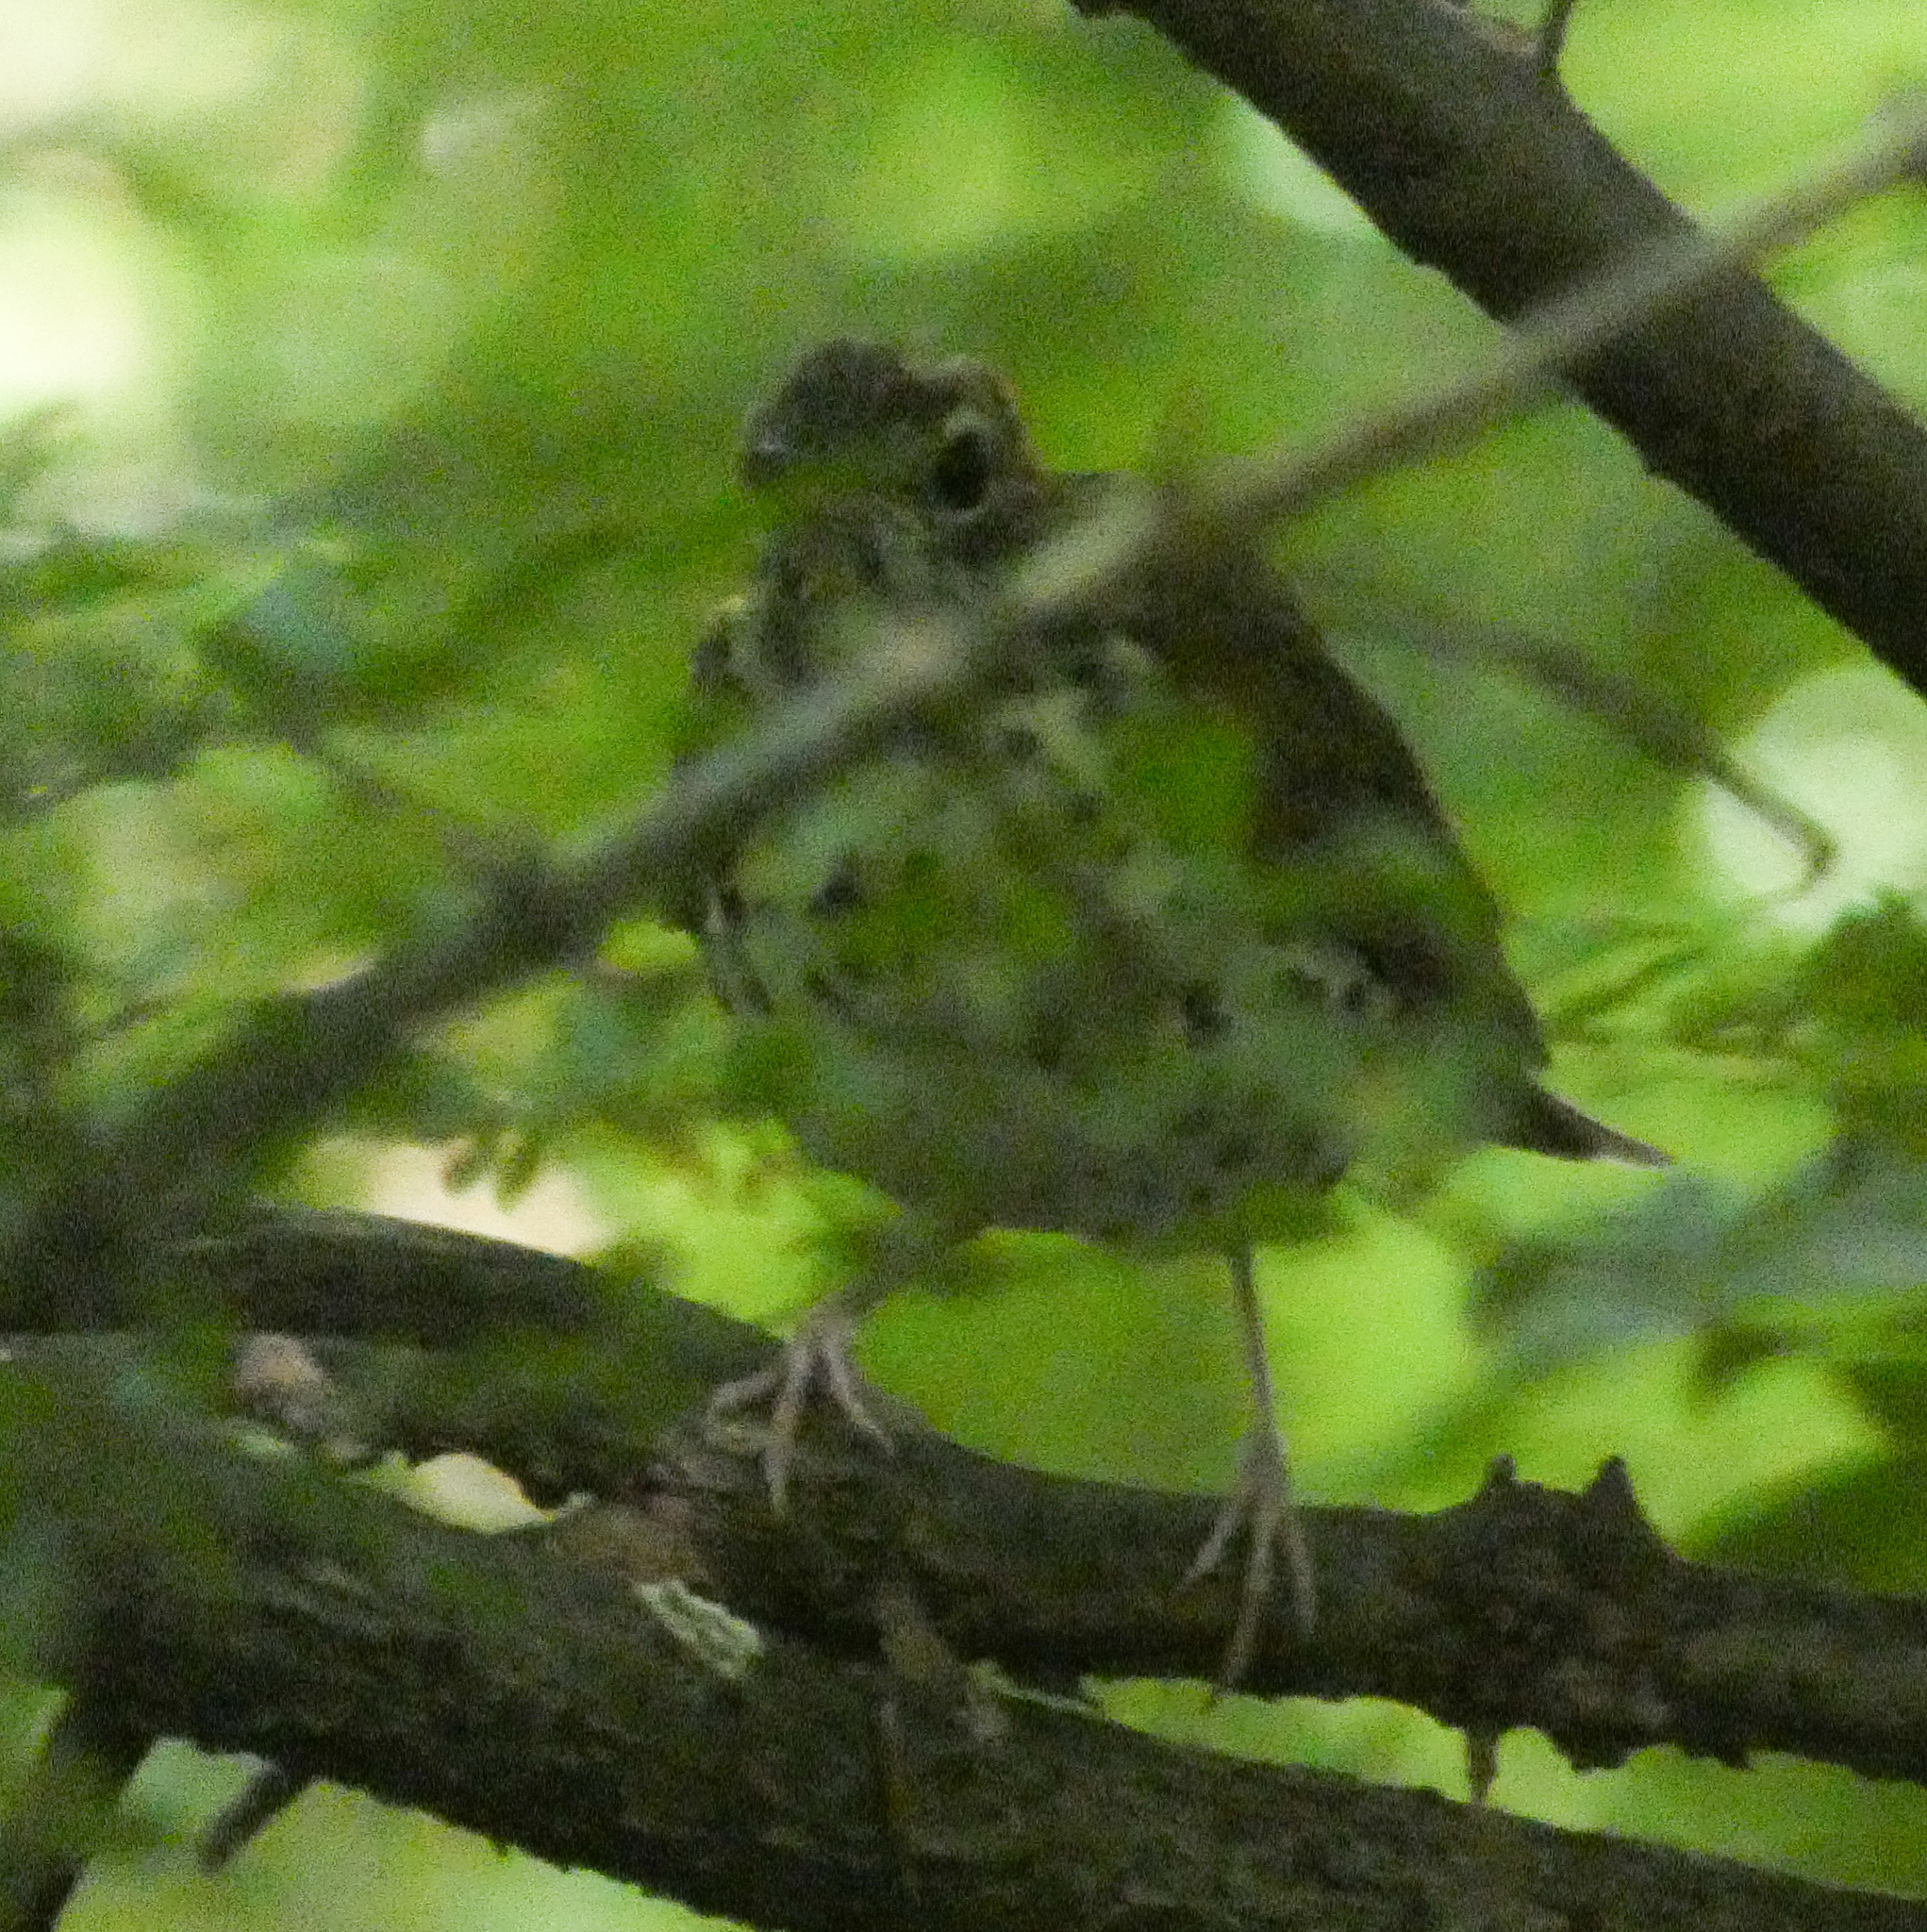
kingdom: Animalia
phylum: Chordata
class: Aves
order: Passeriformes
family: Turdidae
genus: Hylocichla
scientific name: Hylocichla mustelina
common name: Wood thrush
